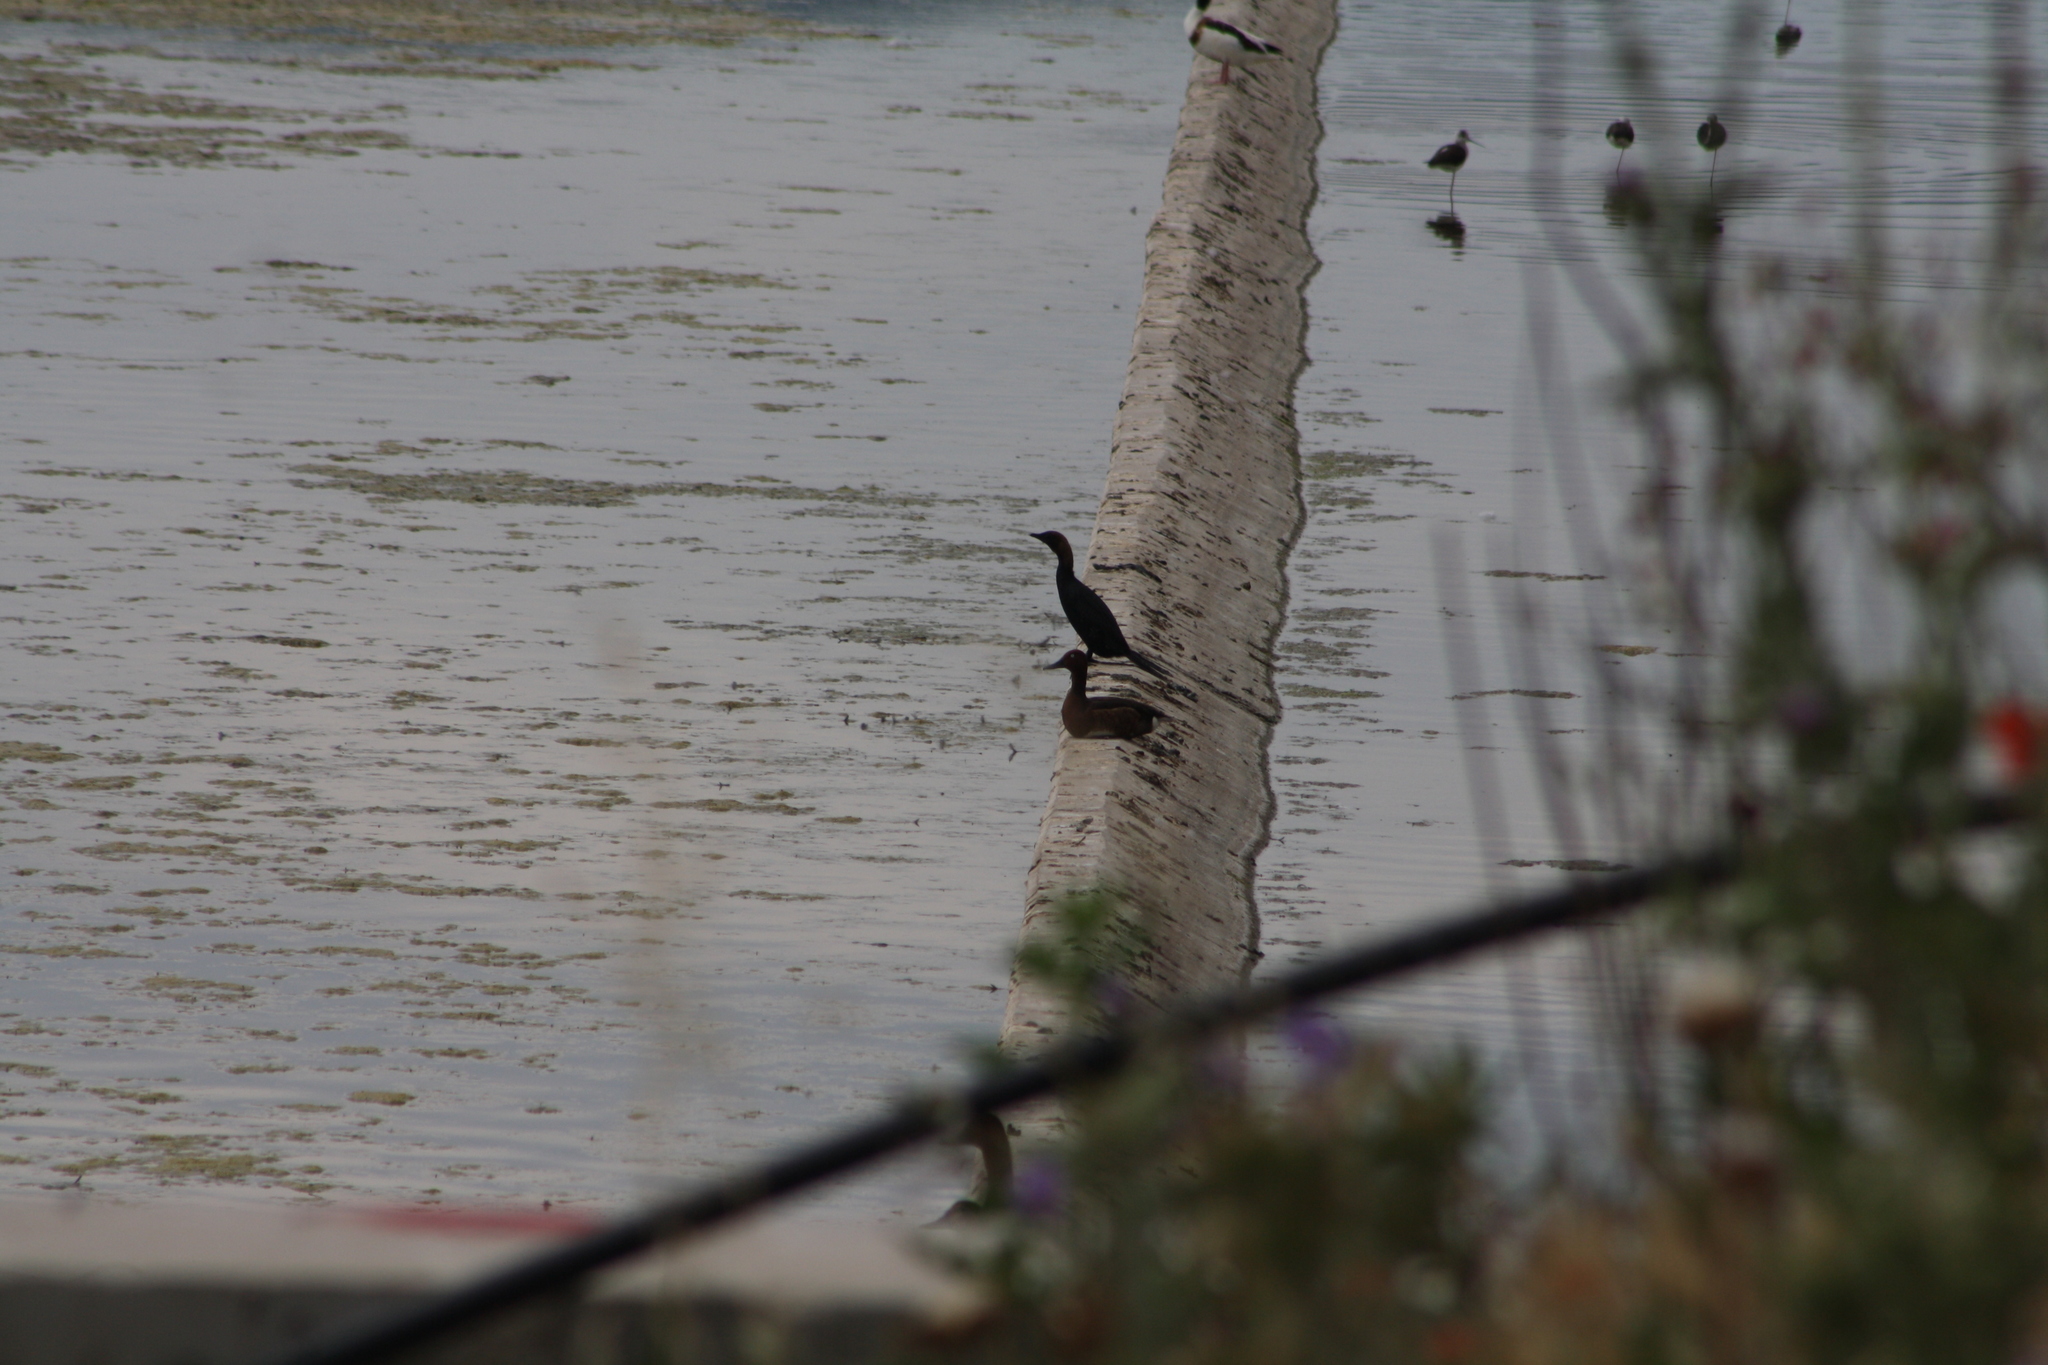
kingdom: Animalia
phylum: Chordata
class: Aves
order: Suliformes
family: Phalacrocoracidae
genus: Microcarbo
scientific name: Microcarbo pygmaeus
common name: Pygmy cormorant
